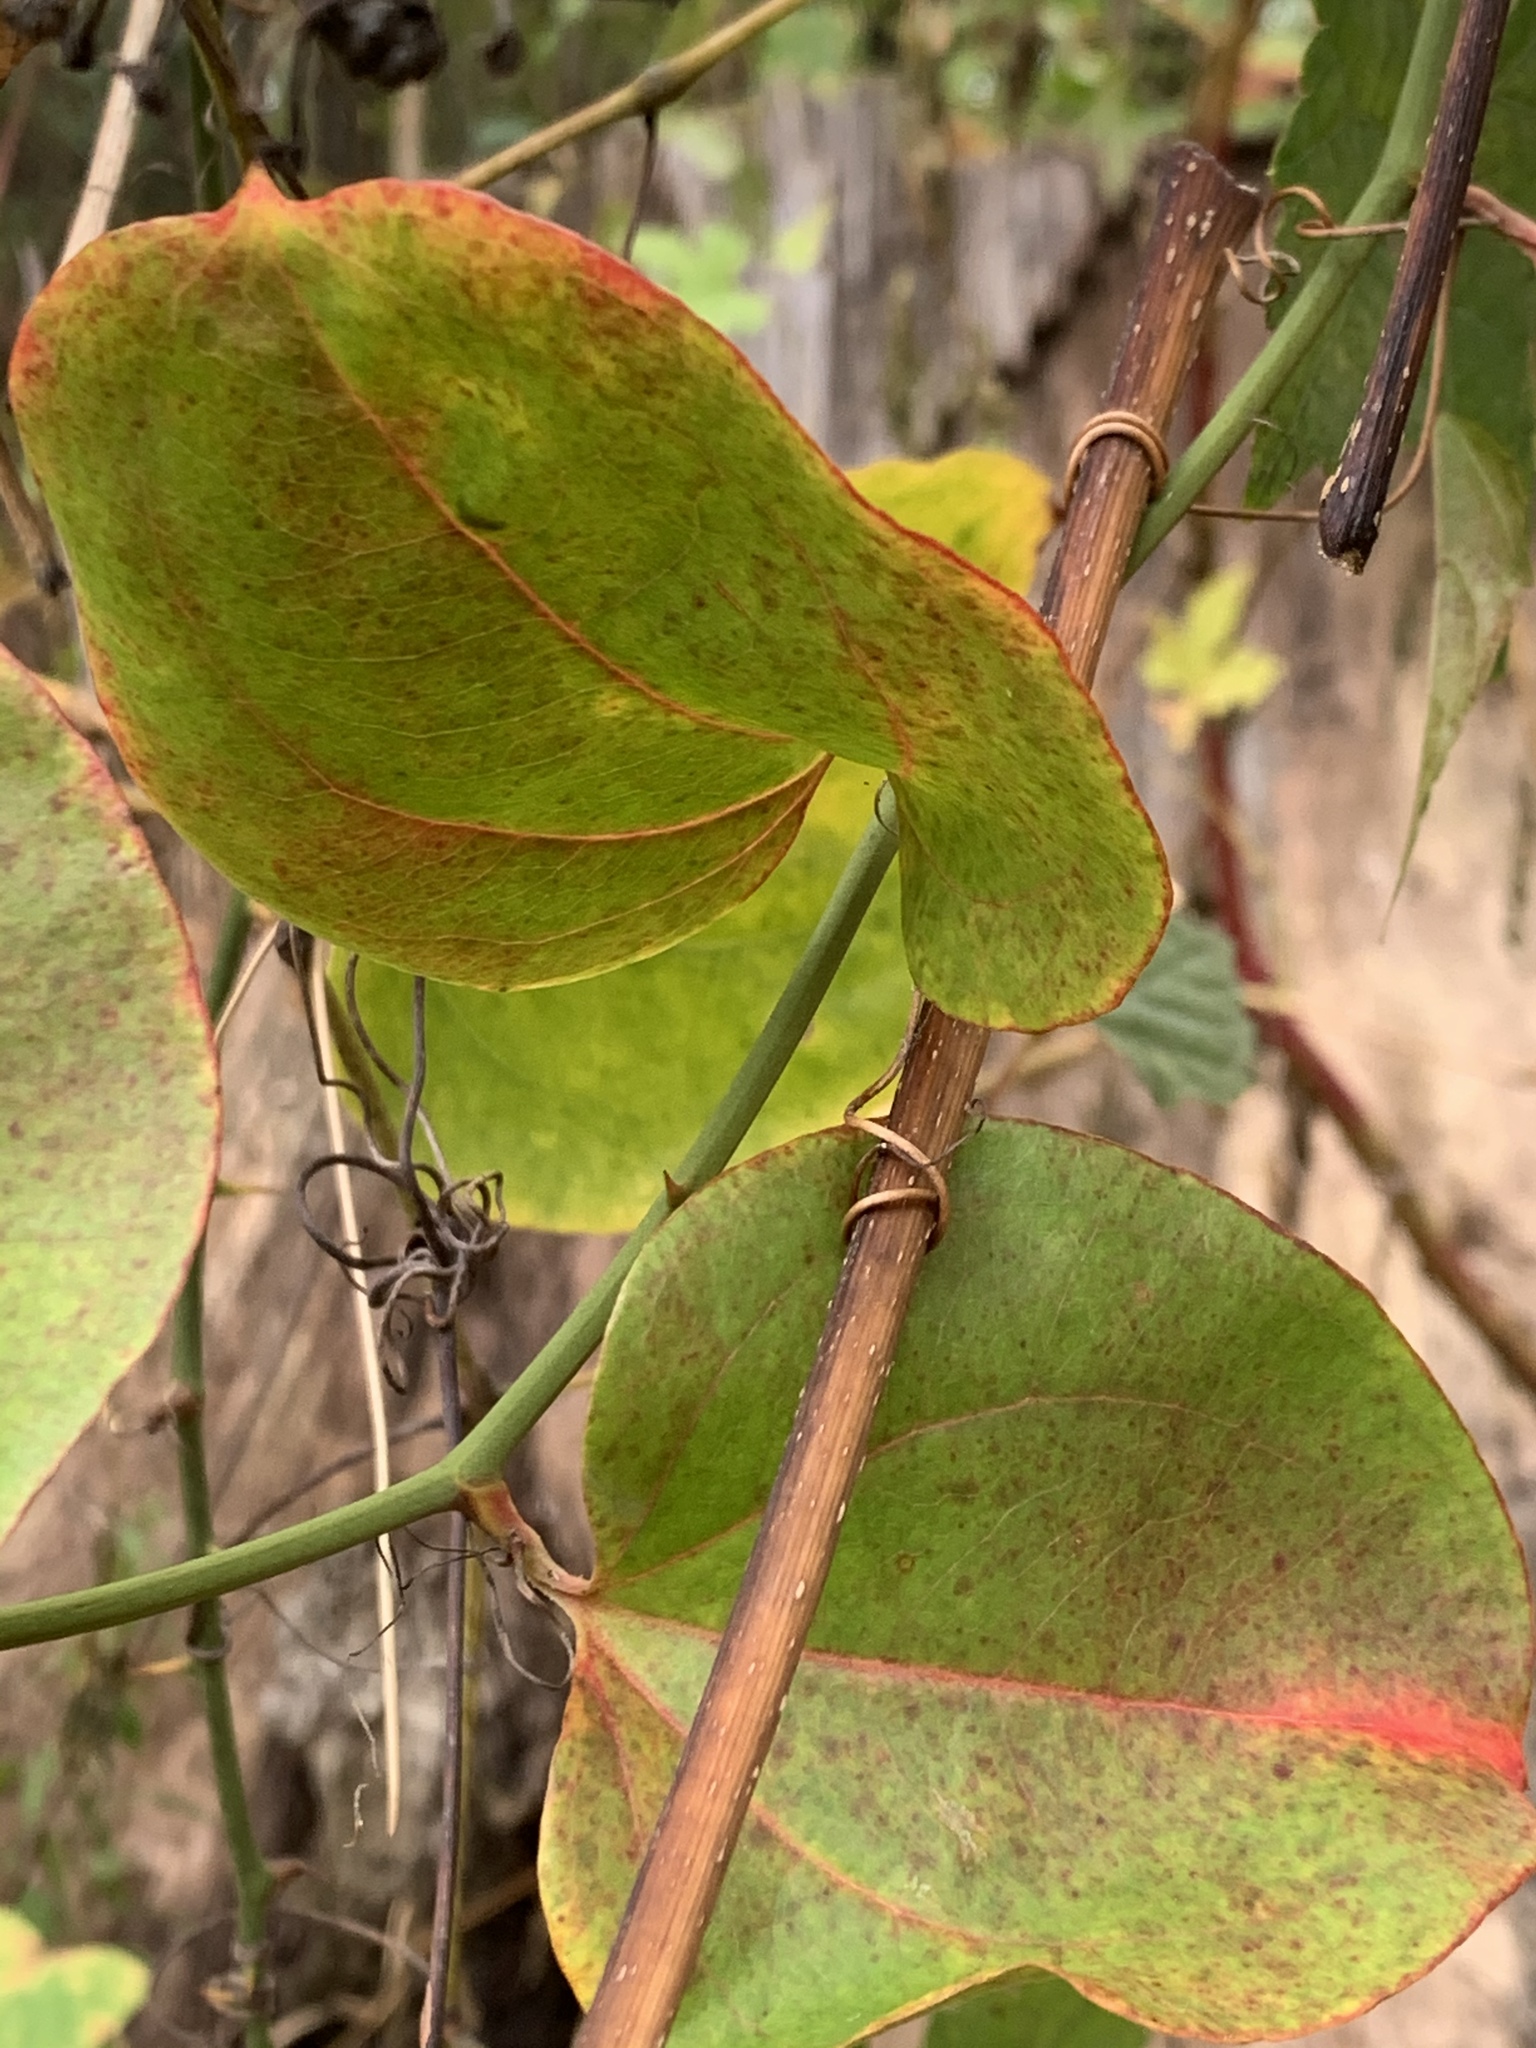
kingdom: Plantae
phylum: Tracheophyta
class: Liliopsida
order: Liliales
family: Smilacaceae
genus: Smilax
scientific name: Smilax rotundifolia
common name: Bullbriar
